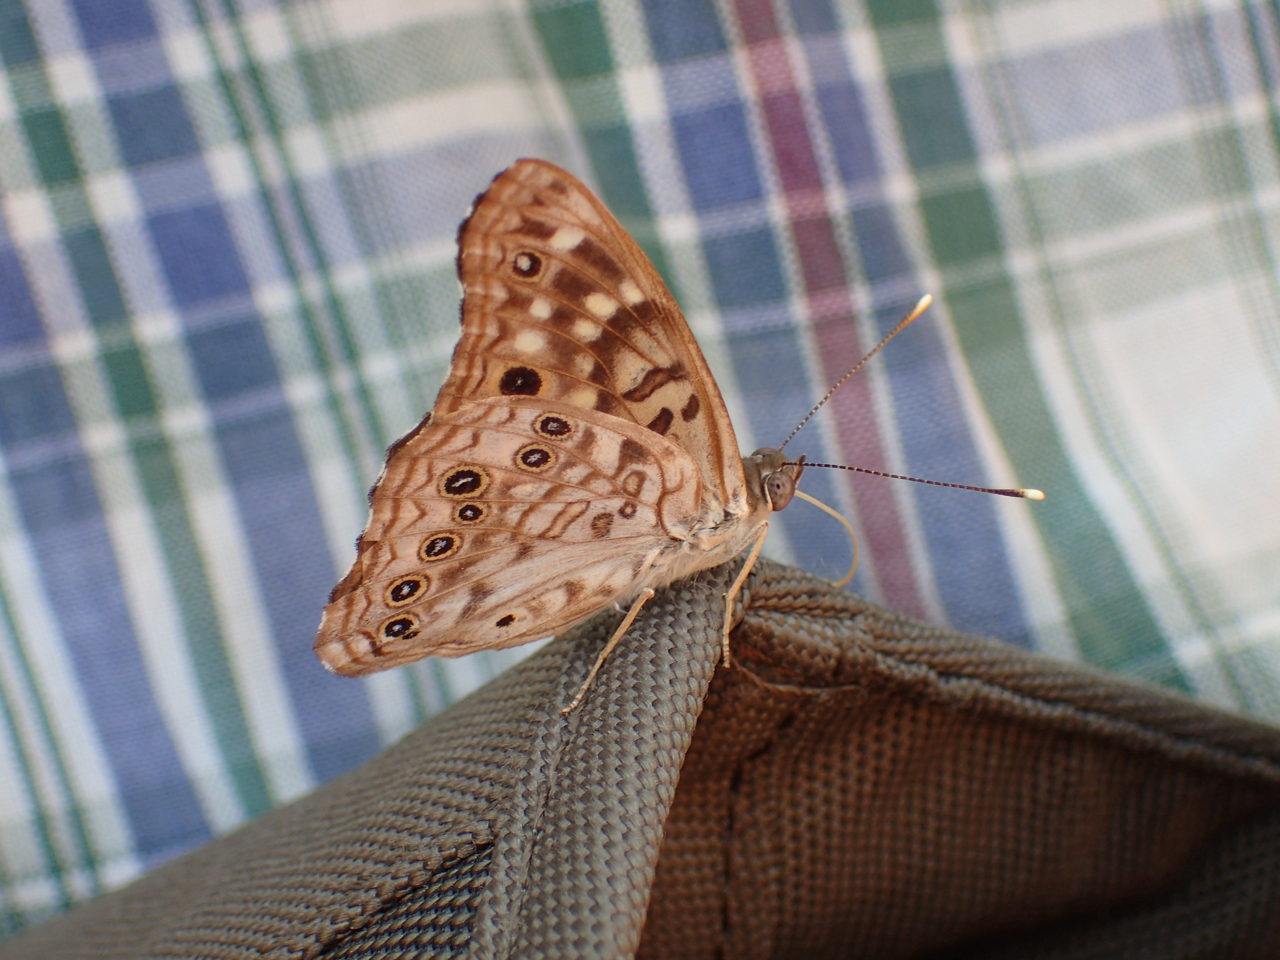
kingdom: Animalia
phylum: Arthropoda
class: Insecta
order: Lepidoptera
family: Nymphalidae
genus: Asterocampa
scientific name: Asterocampa celtis
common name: Hackberry emperor
